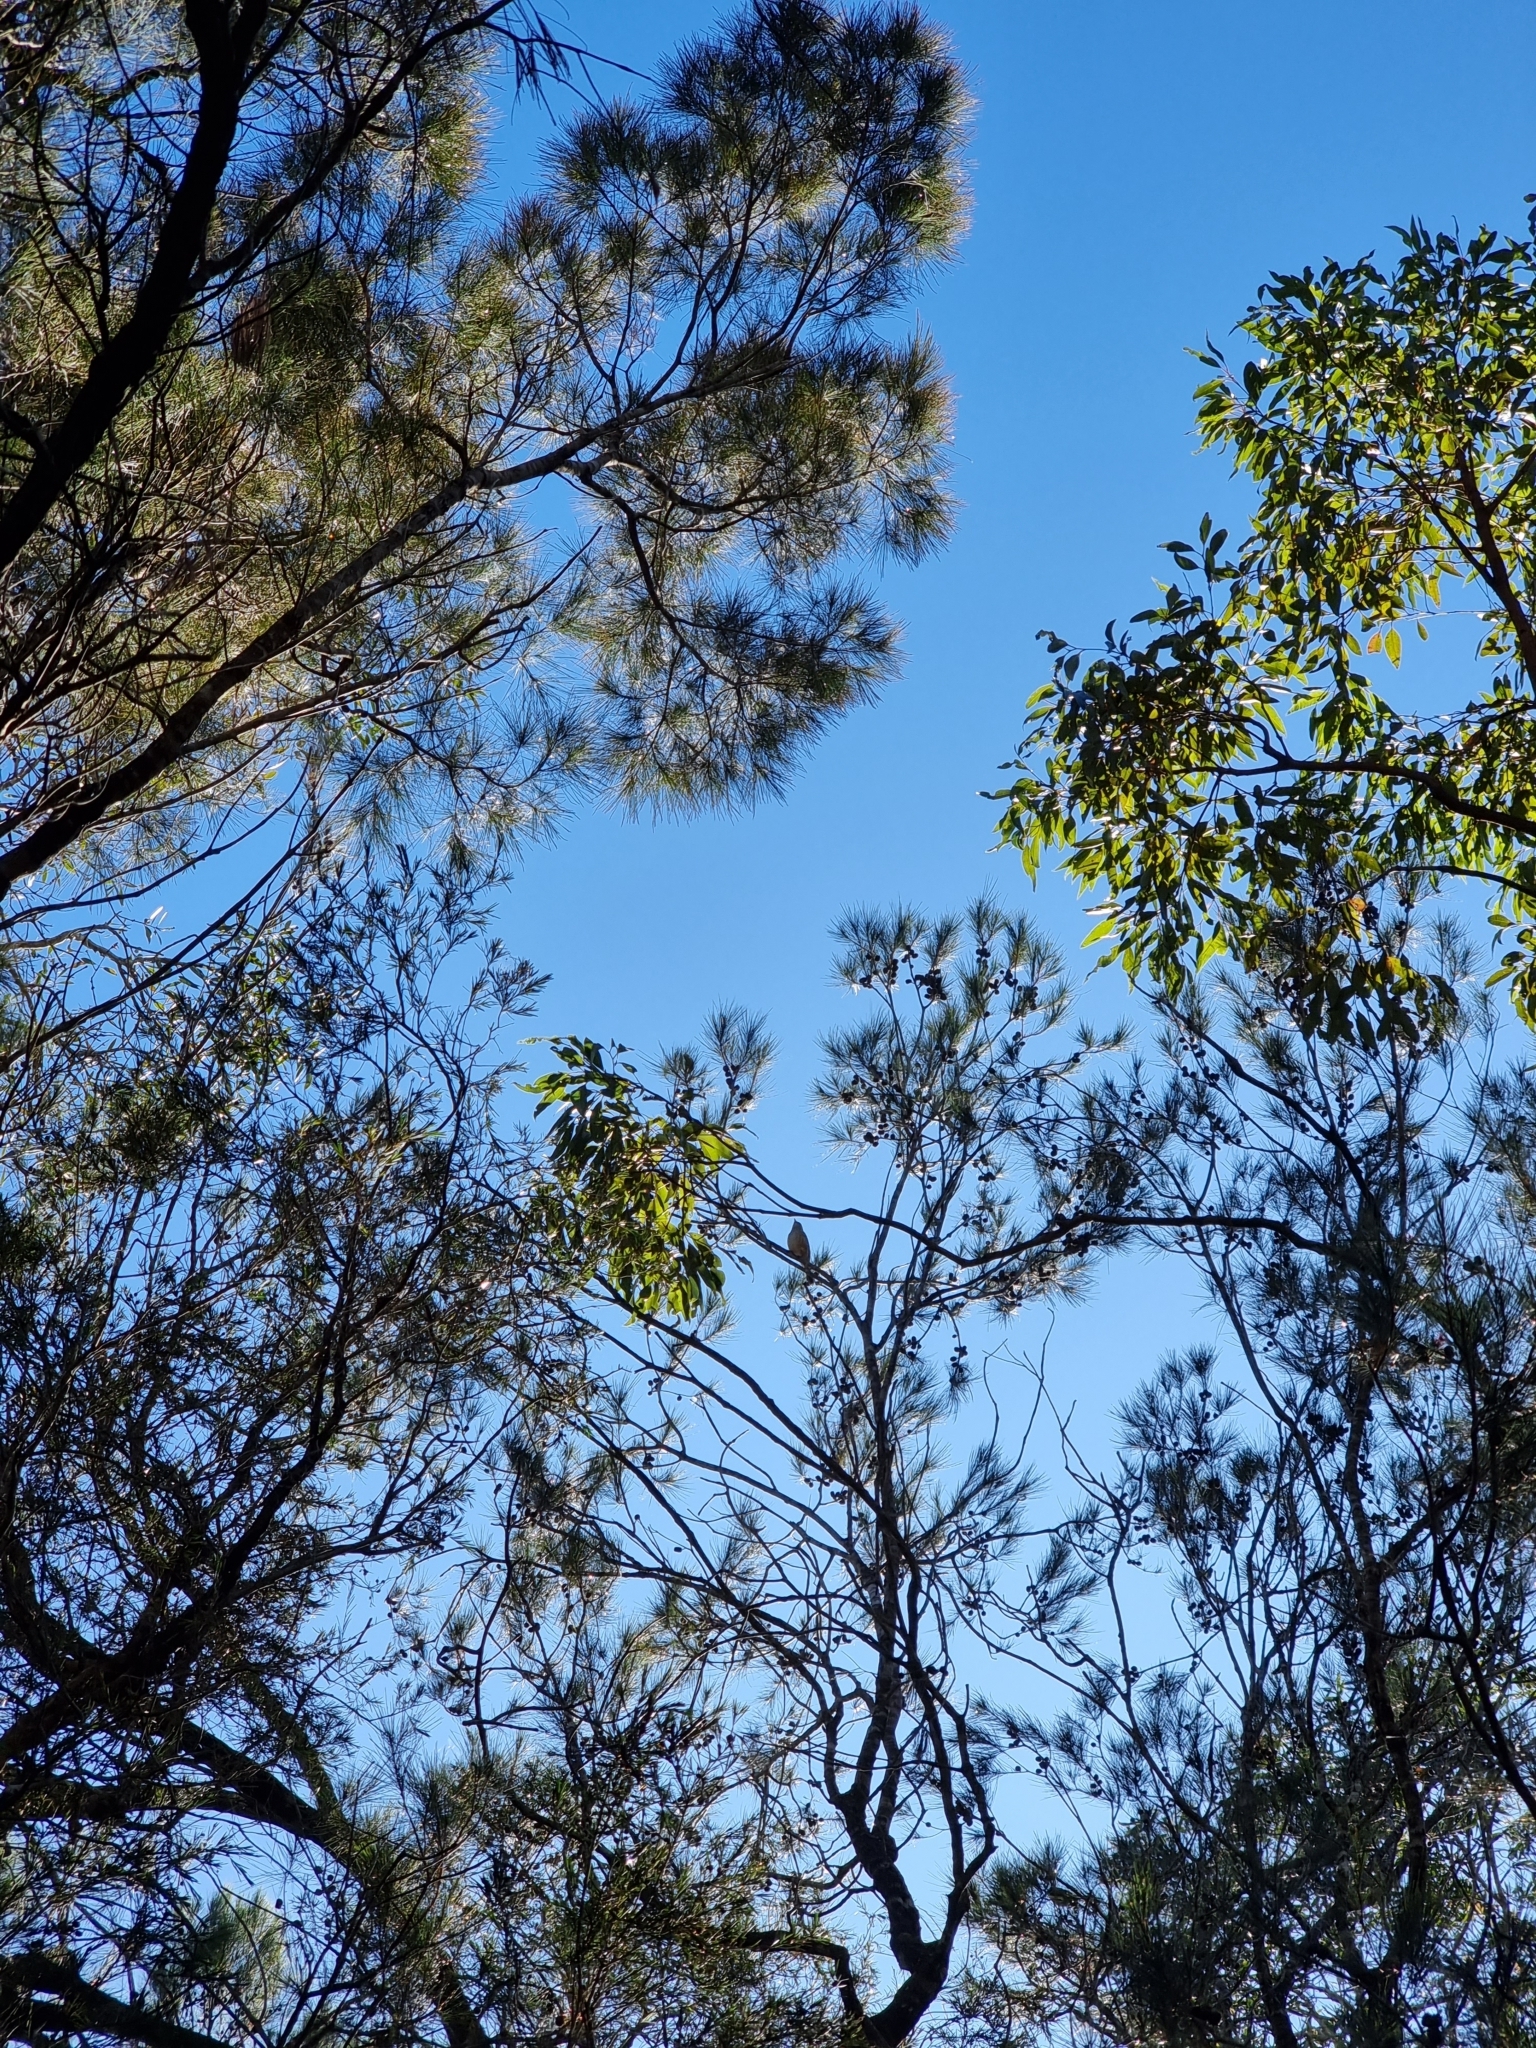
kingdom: Animalia
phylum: Chordata
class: Aves
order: Passeriformes
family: Pachycephalidae
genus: Pachycephala
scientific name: Pachycephala rufiventris
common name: Rufous whistler
